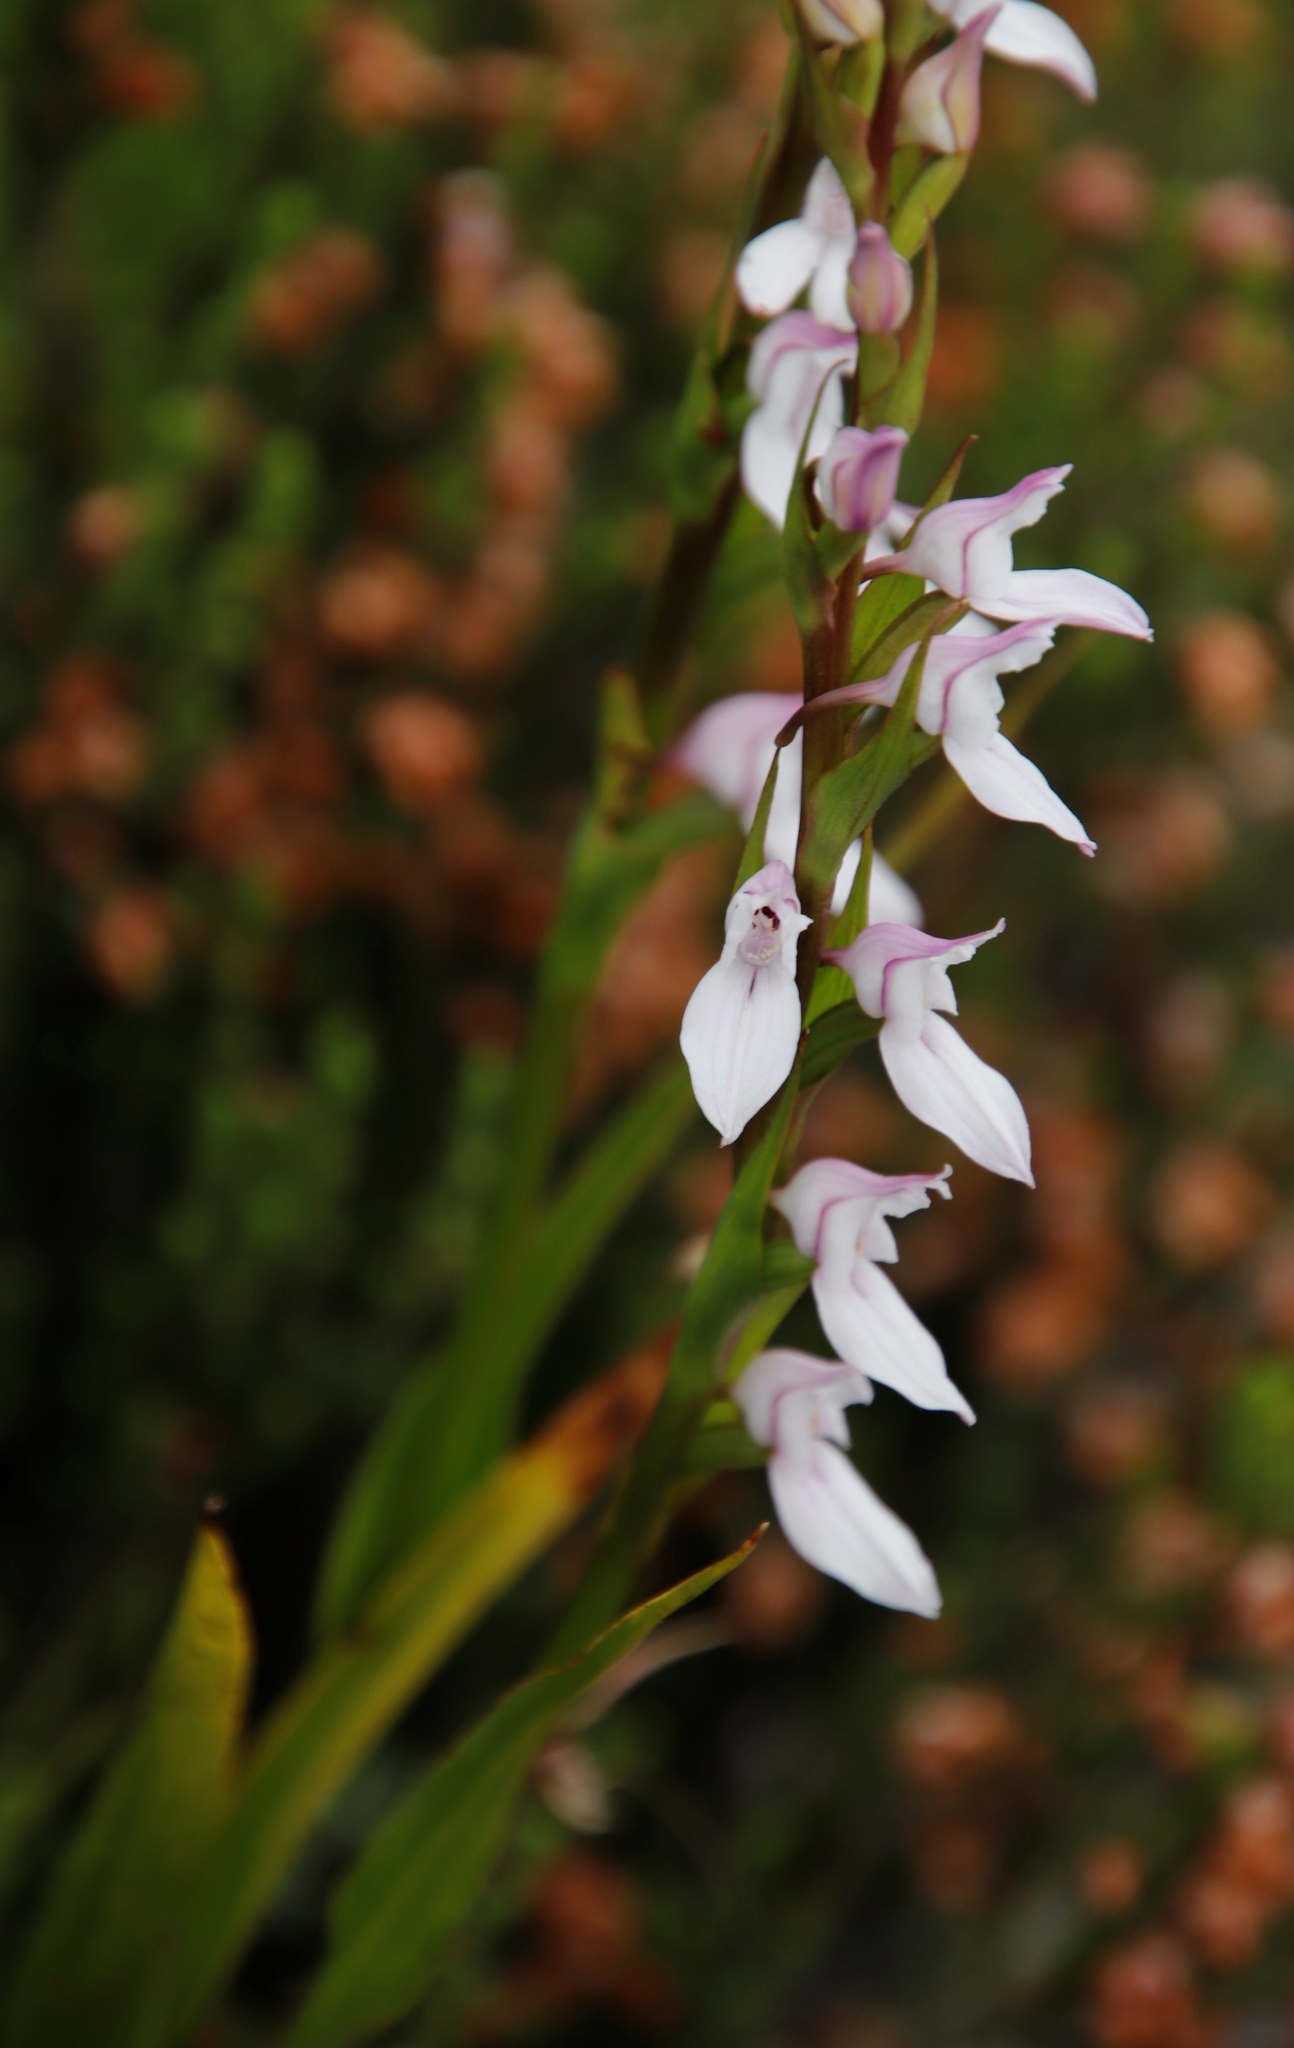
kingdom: Plantae
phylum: Tracheophyta
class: Liliopsida
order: Asparagales
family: Orchidaceae
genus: Brownleea
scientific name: Brownleea recurvata
